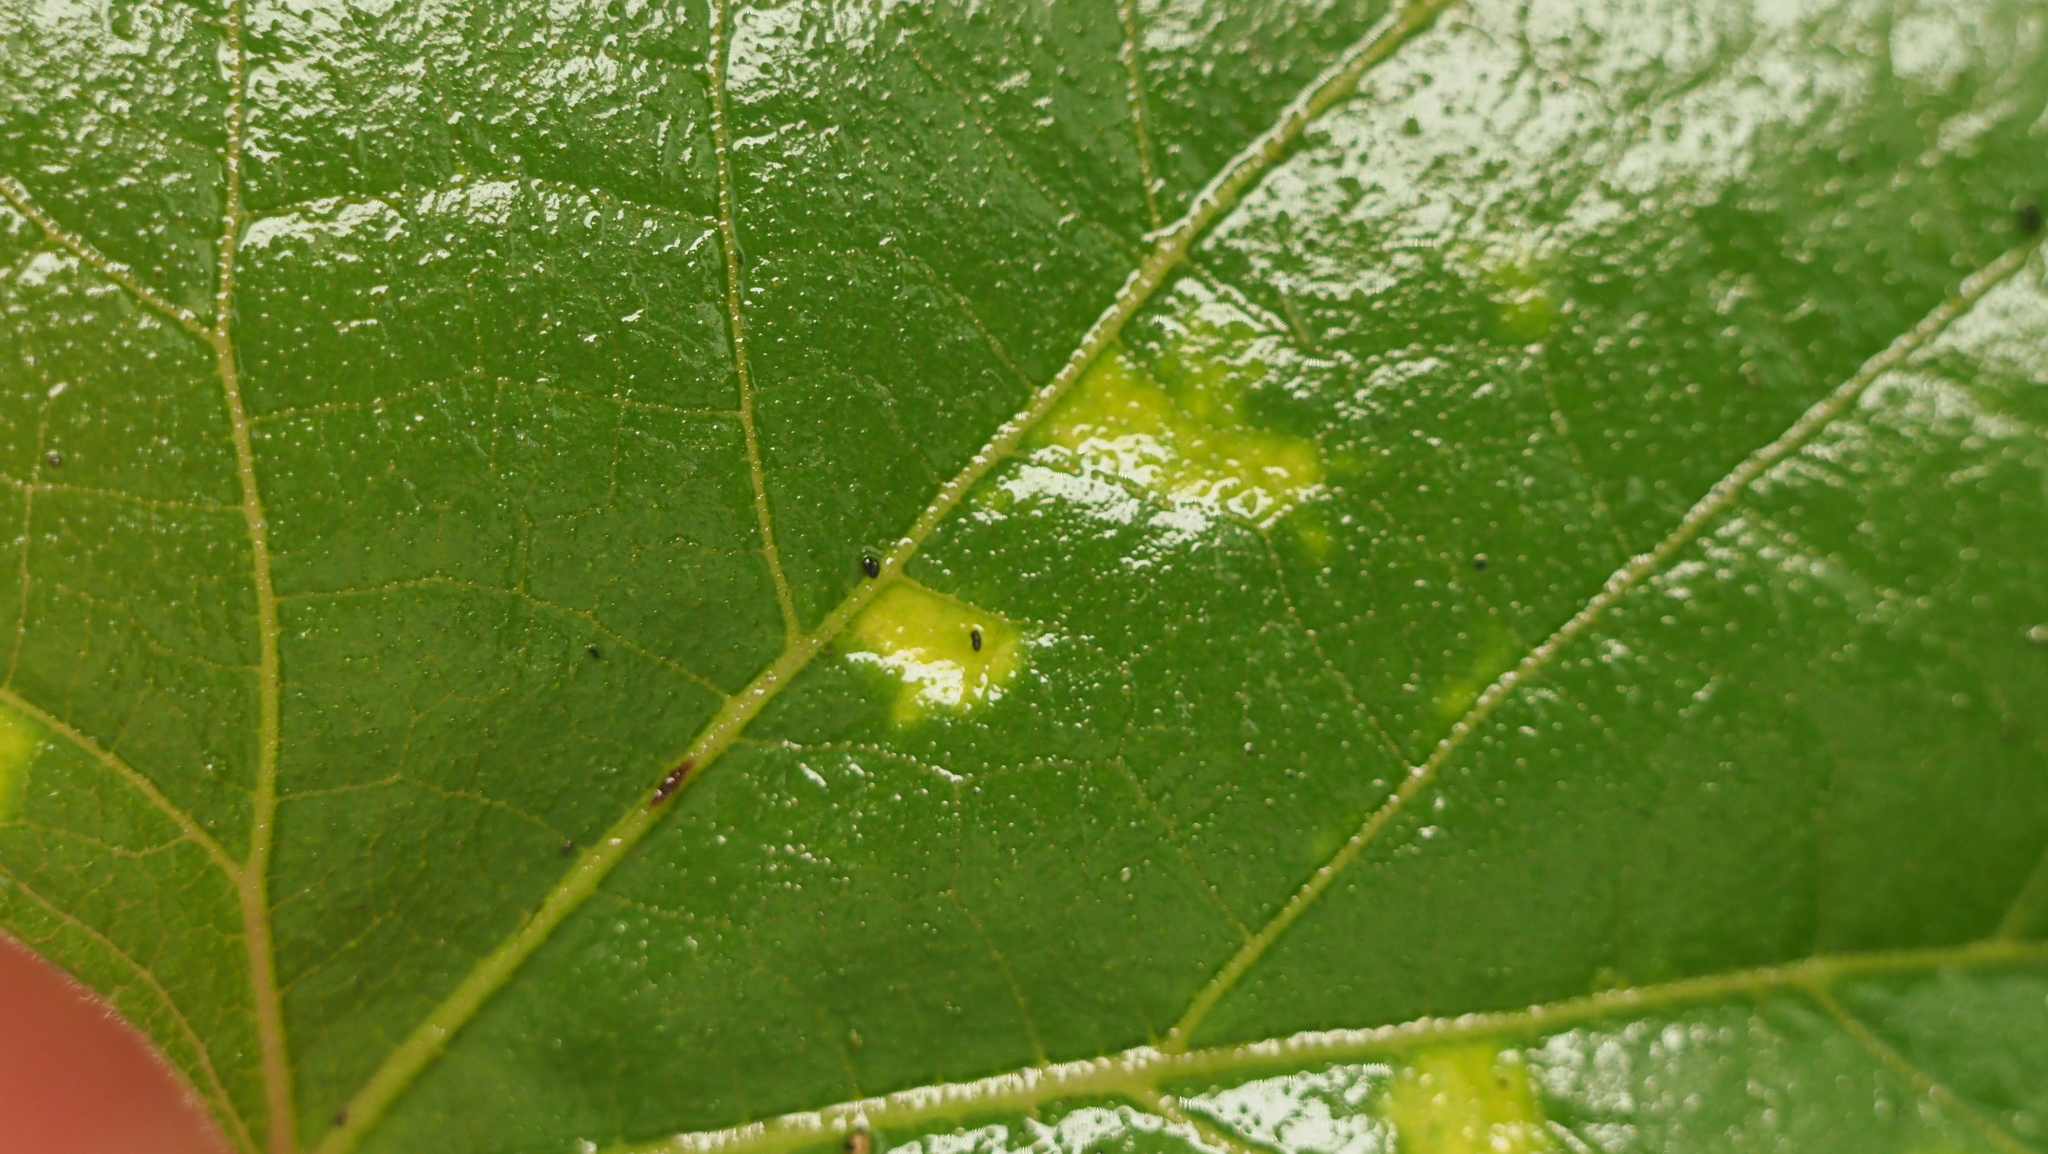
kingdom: Animalia
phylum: Arthropoda
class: Arachnida
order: Trombidiformes
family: Eriophyidae
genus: Colomerus
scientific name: Colomerus vitis
